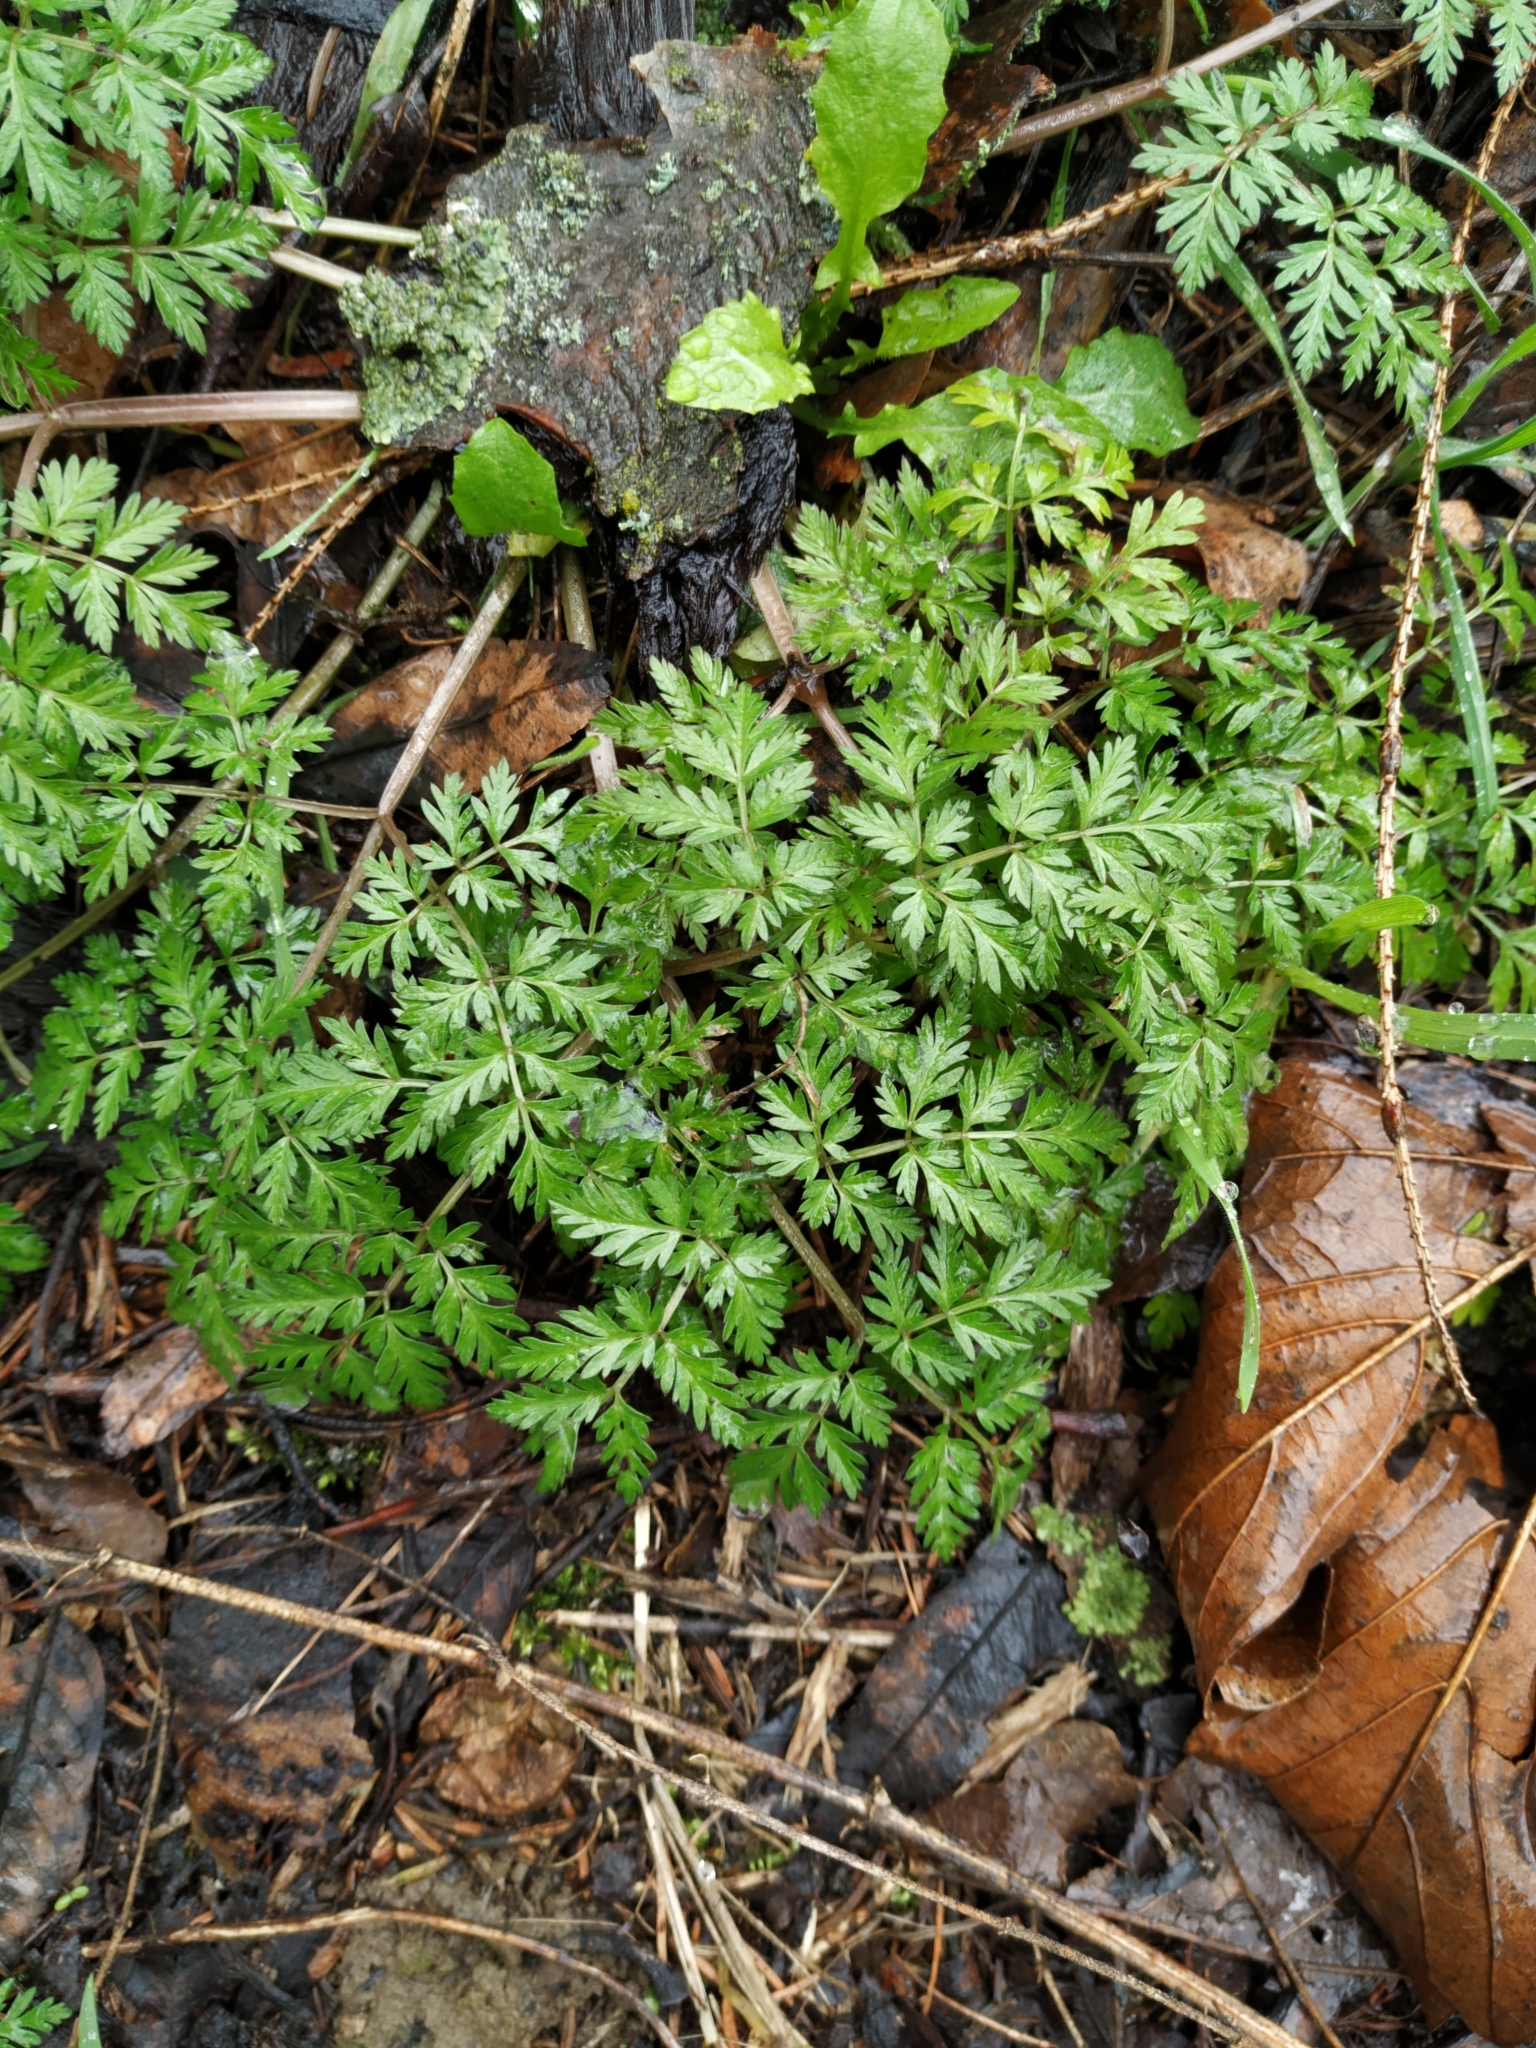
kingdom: Plantae
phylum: Tracheophyta
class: Magnoliopsida
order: Apiales
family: Apiaceae
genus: Anthriscus
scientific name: Anthriscus sylvestris
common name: Cow parsley
